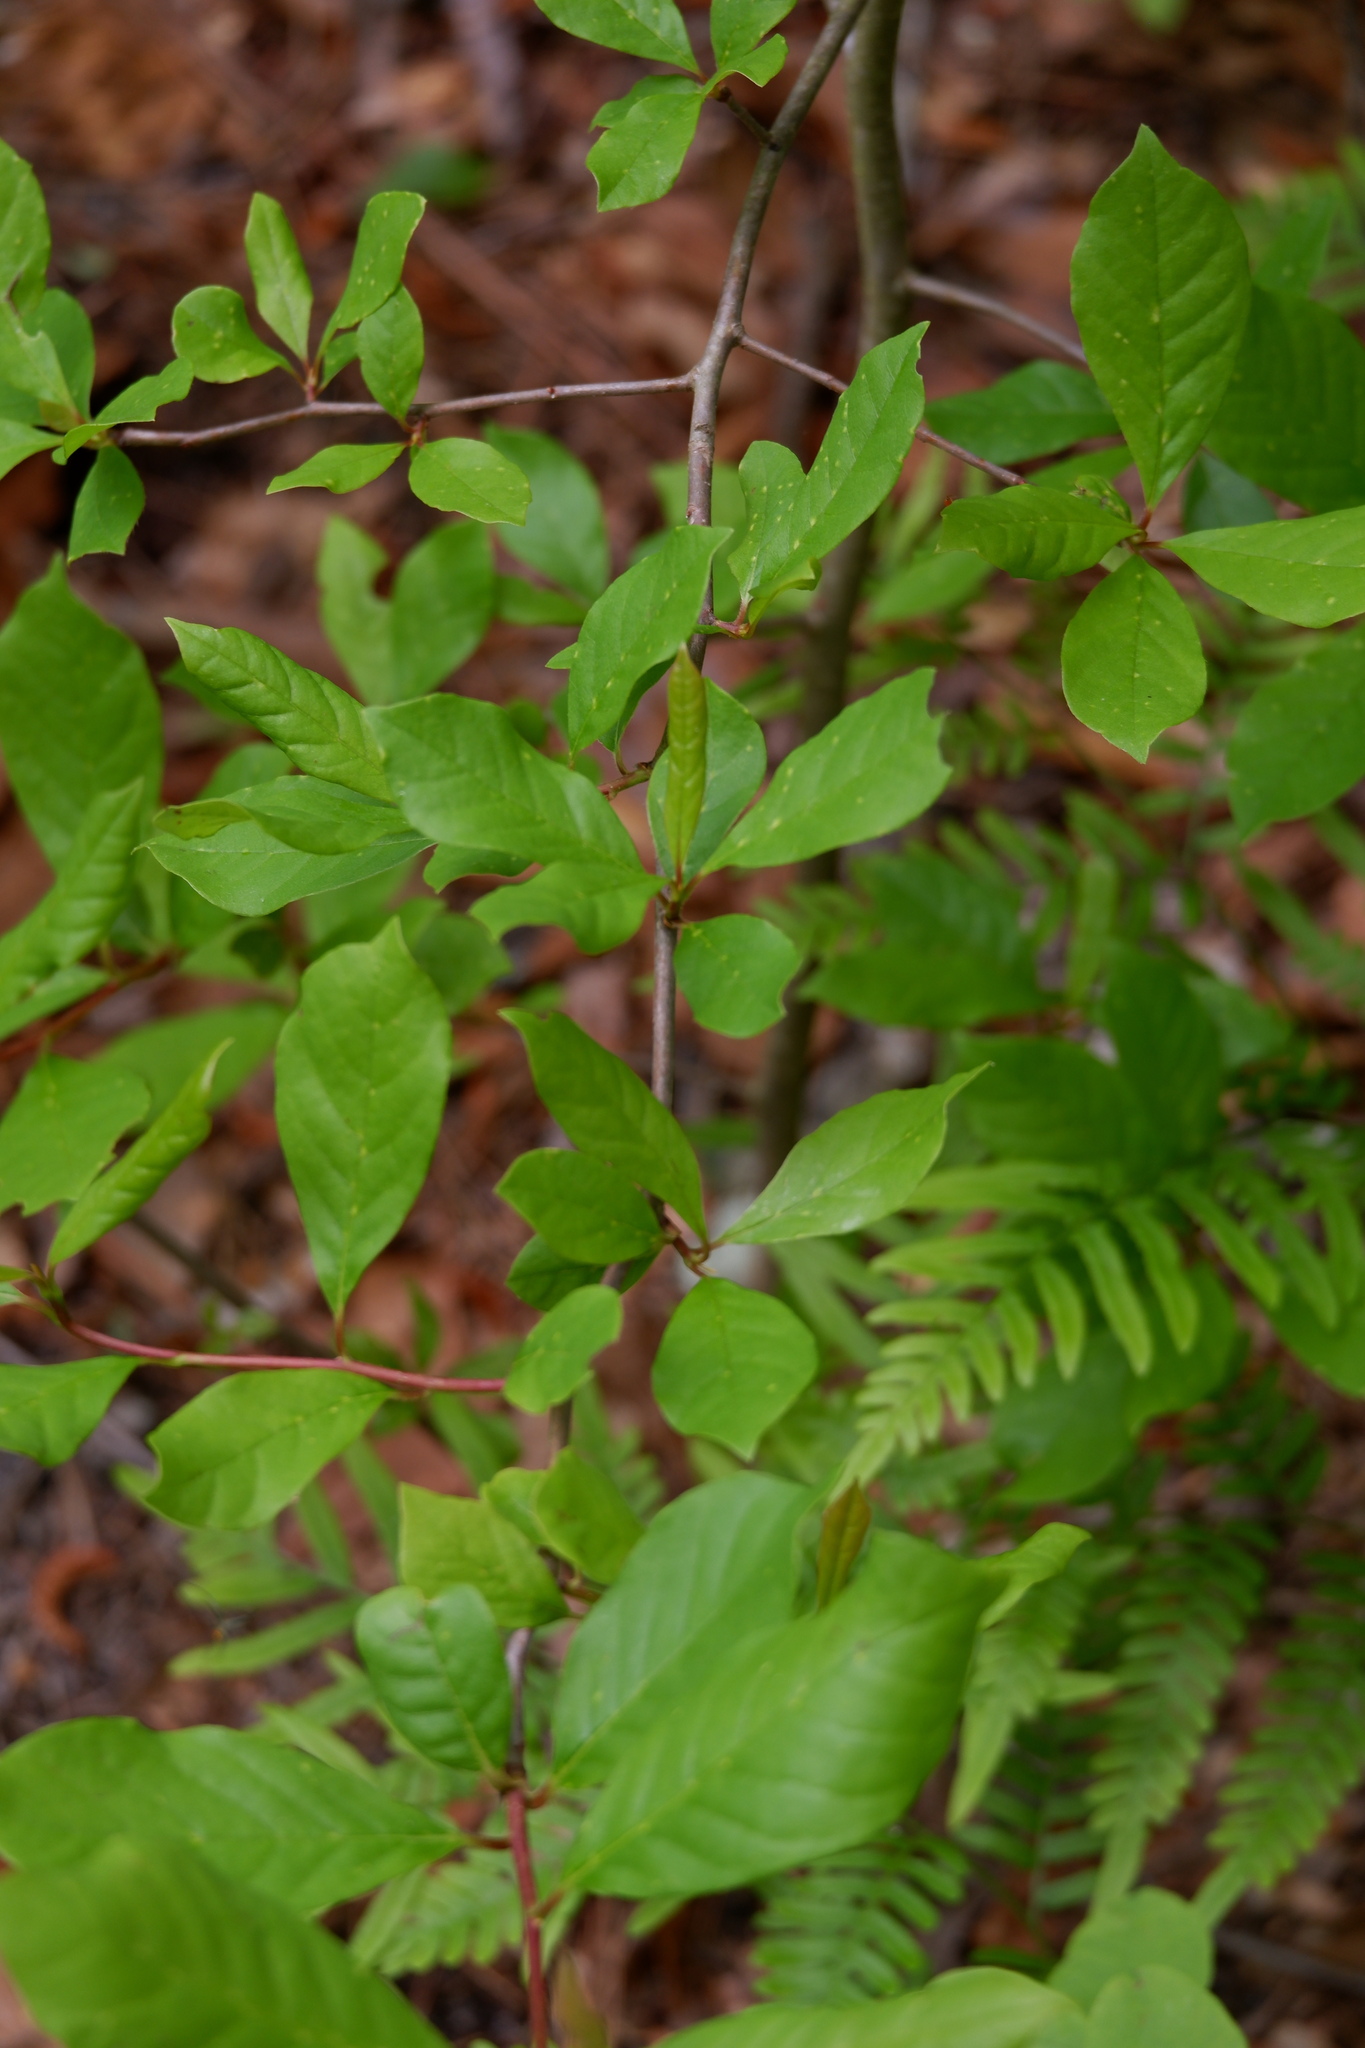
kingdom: Plantae
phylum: Tracheophyta
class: Magnoliopsida
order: Cornales
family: Nyssaceae
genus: Nyssa
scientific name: Nyssa sylvatica
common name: Black tupelo
